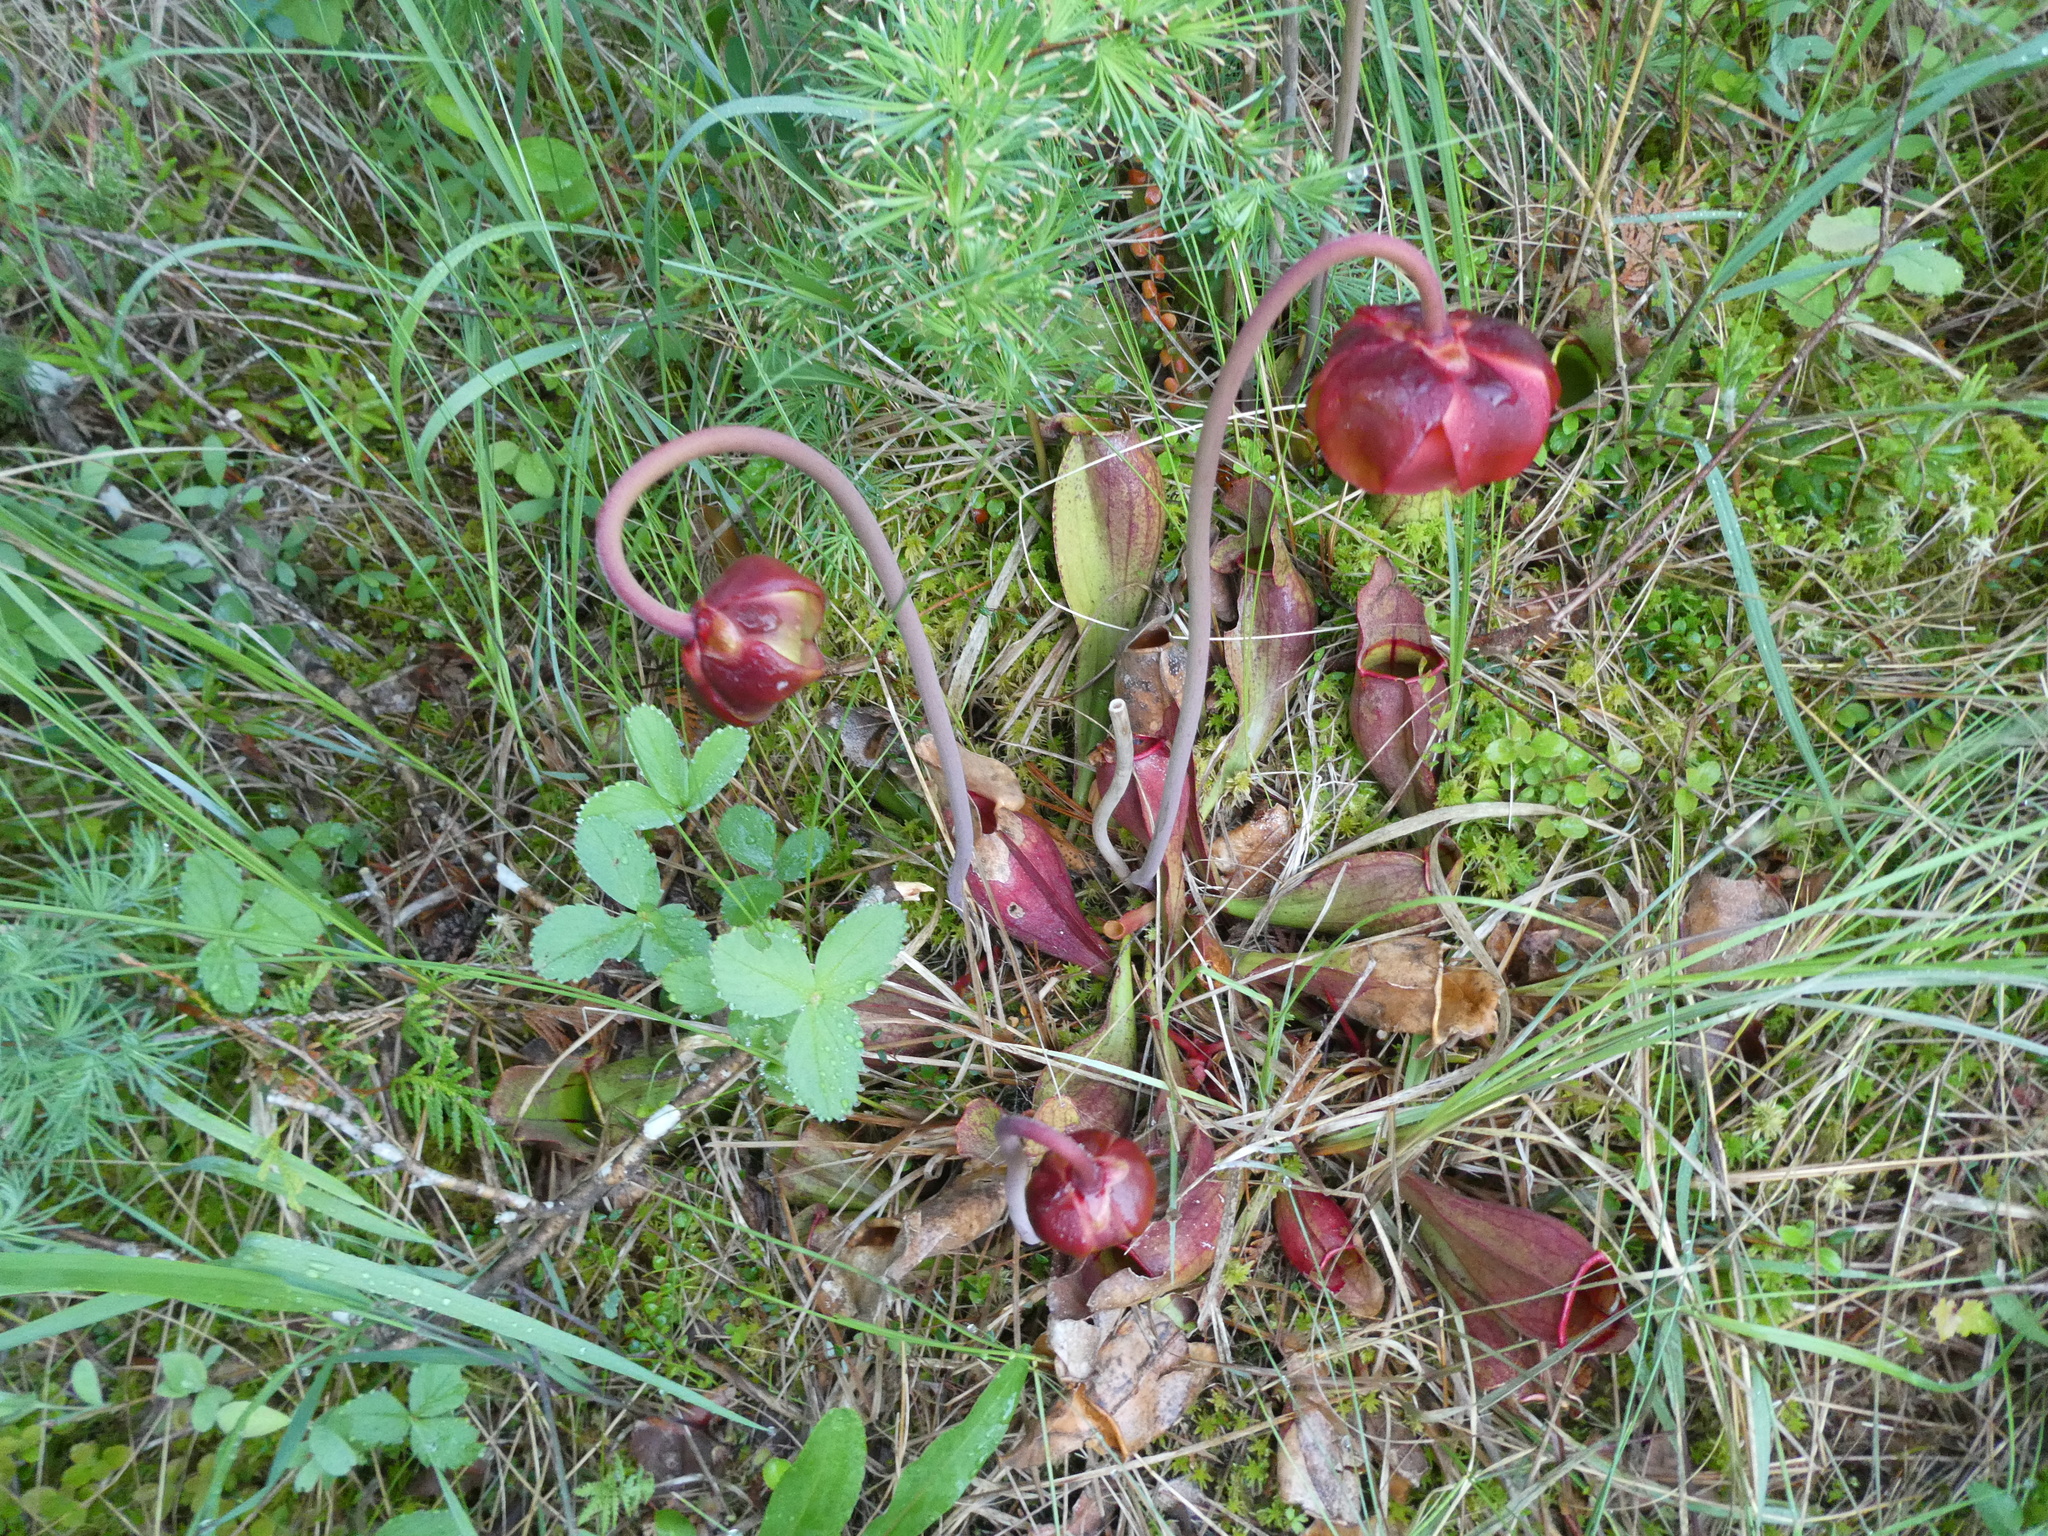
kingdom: Plantae
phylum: Tracheophyta
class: Magnoliopsida
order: Ericales
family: Sarraceniaceae
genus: Sarracenia
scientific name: Sarracenia purpurea
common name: Pitcherplant
